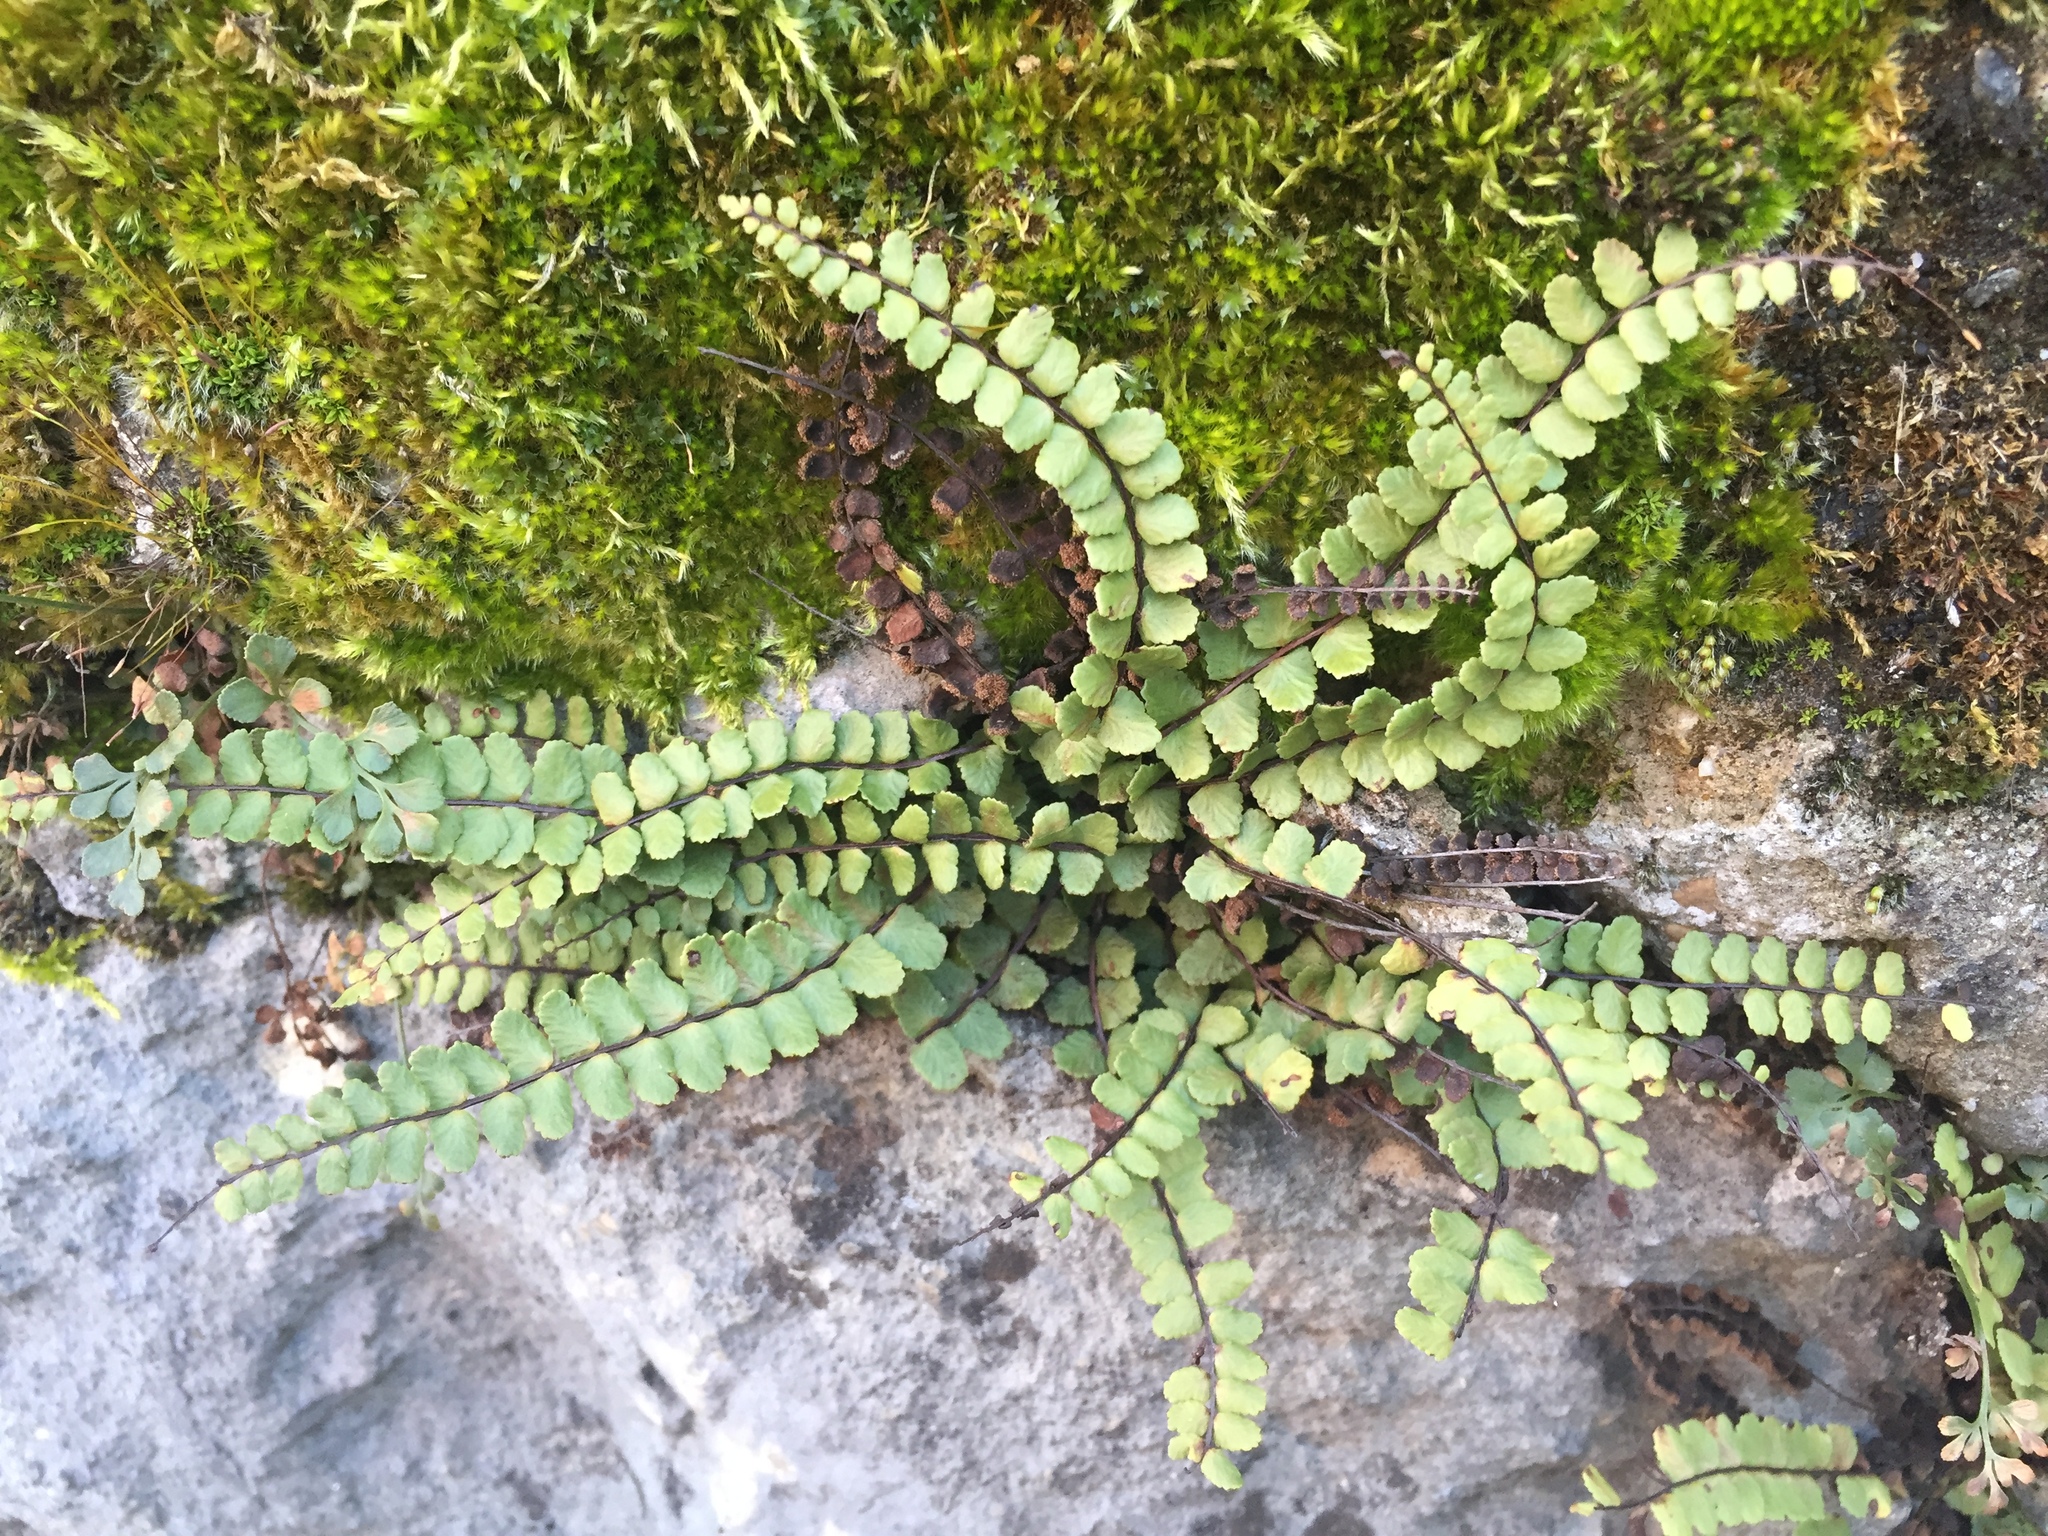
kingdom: Plantae
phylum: Tracheophyta
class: Polypodiopsida
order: Polypodiales
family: Aspleniaceae
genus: Asplenium
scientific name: Asplenium trichomanes
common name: Maidenhair spleenwort
